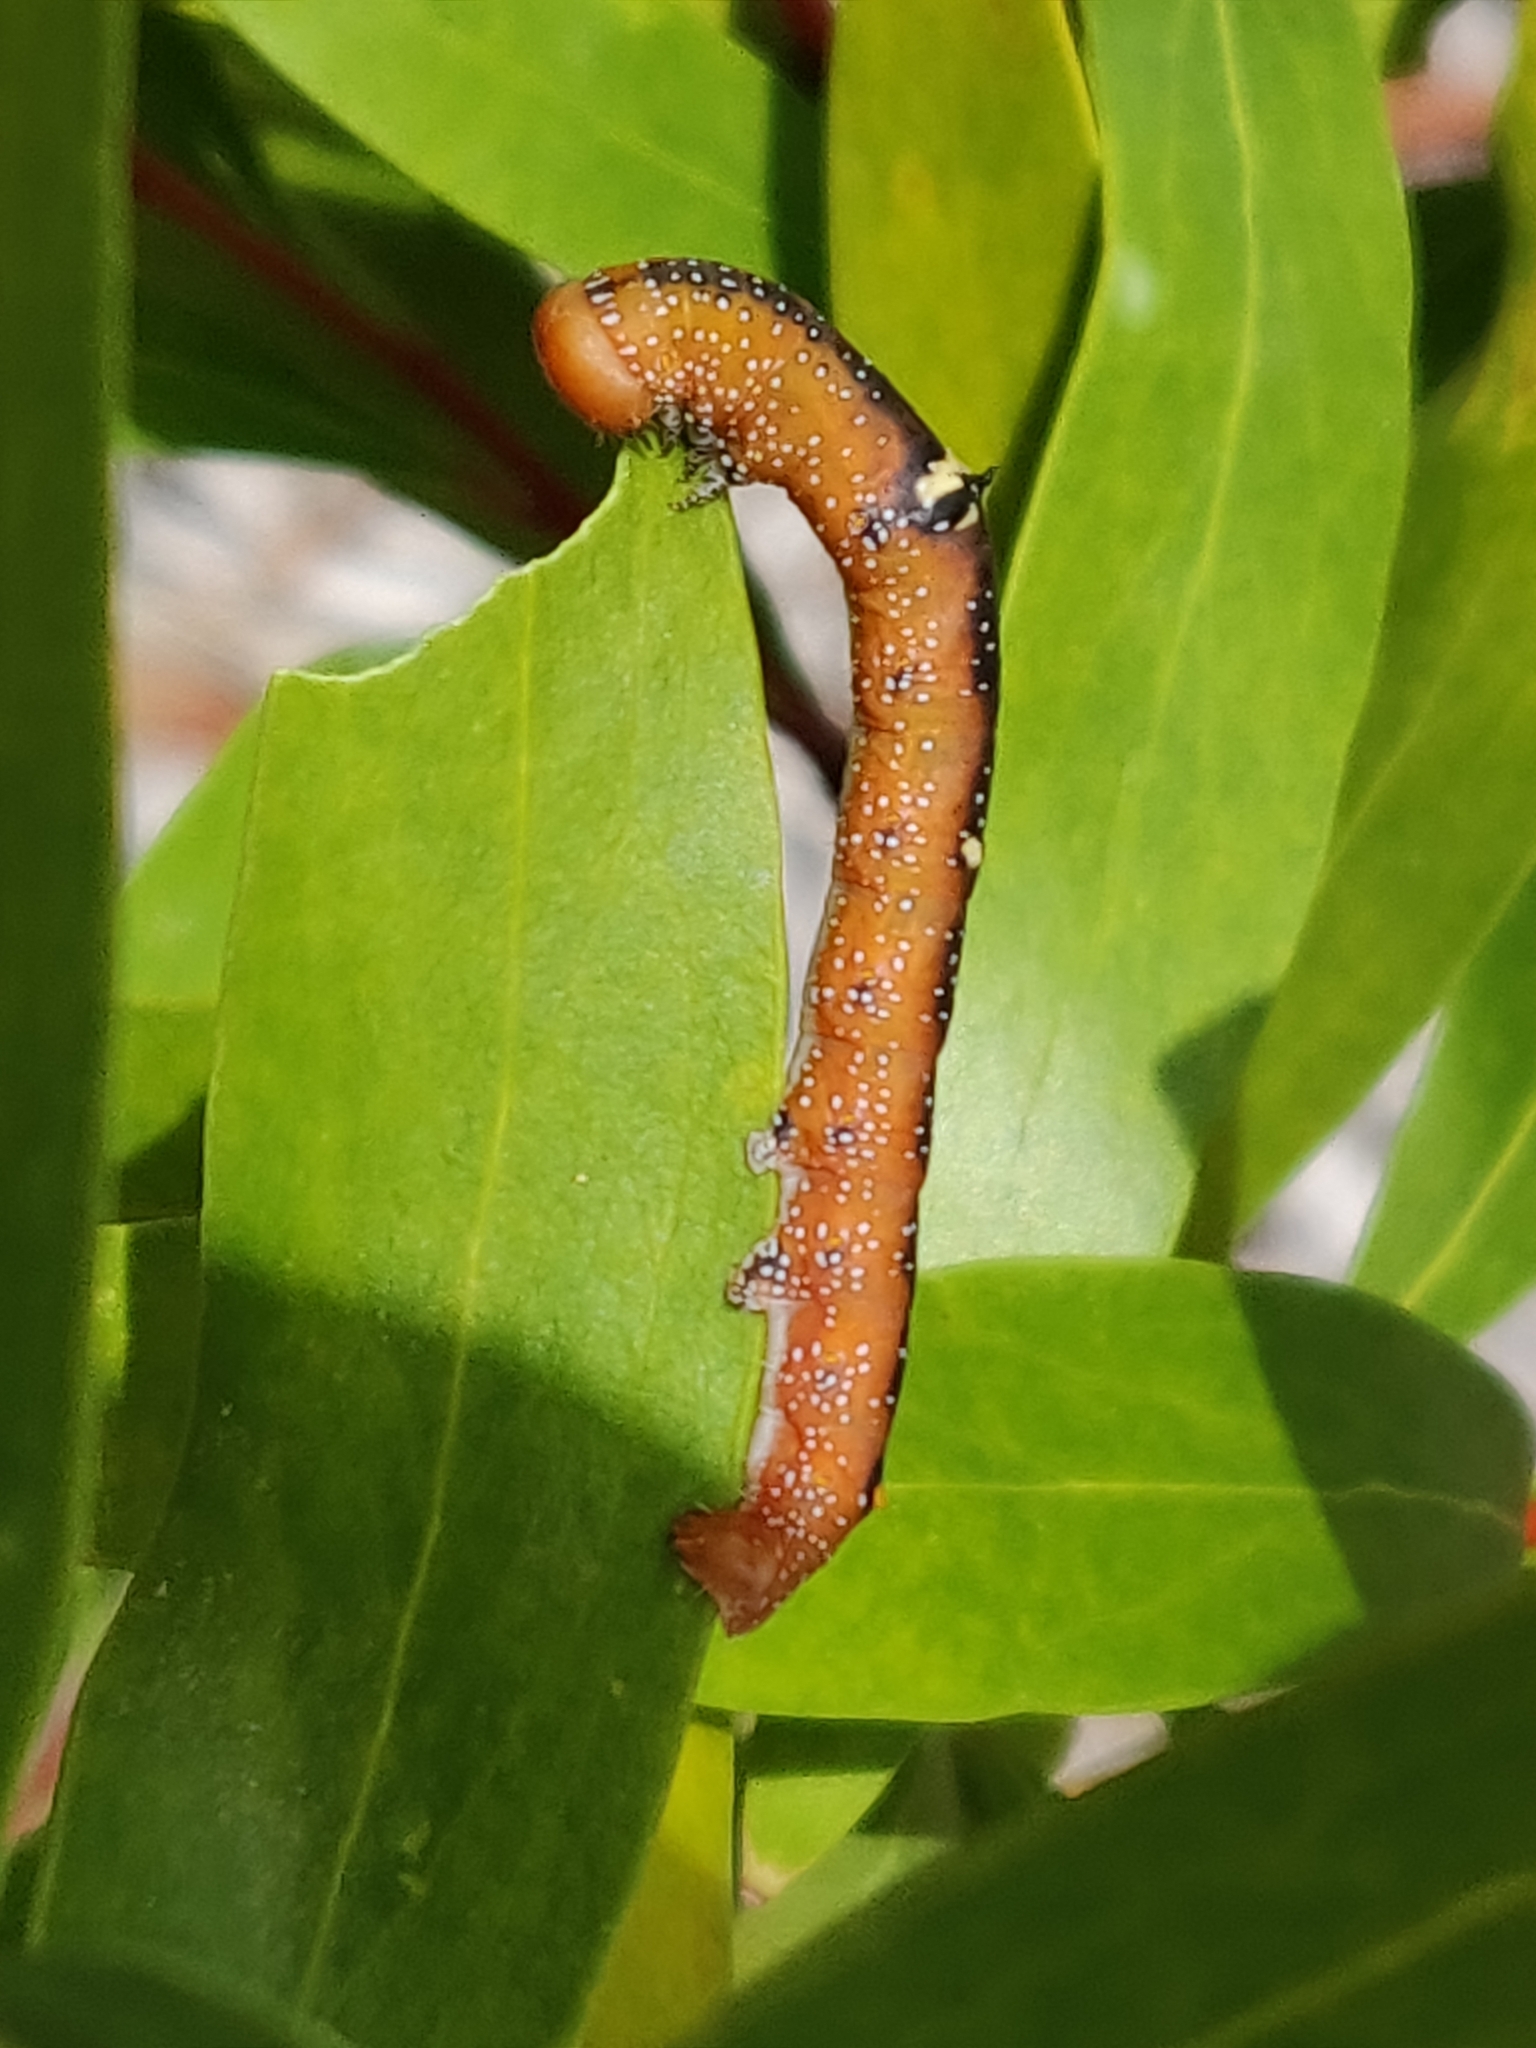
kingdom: Animalia
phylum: Arthropoda
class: Insecta
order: Lepidoptera
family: Geometridae
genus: Oenochroma
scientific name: Oenochroma vinaria
